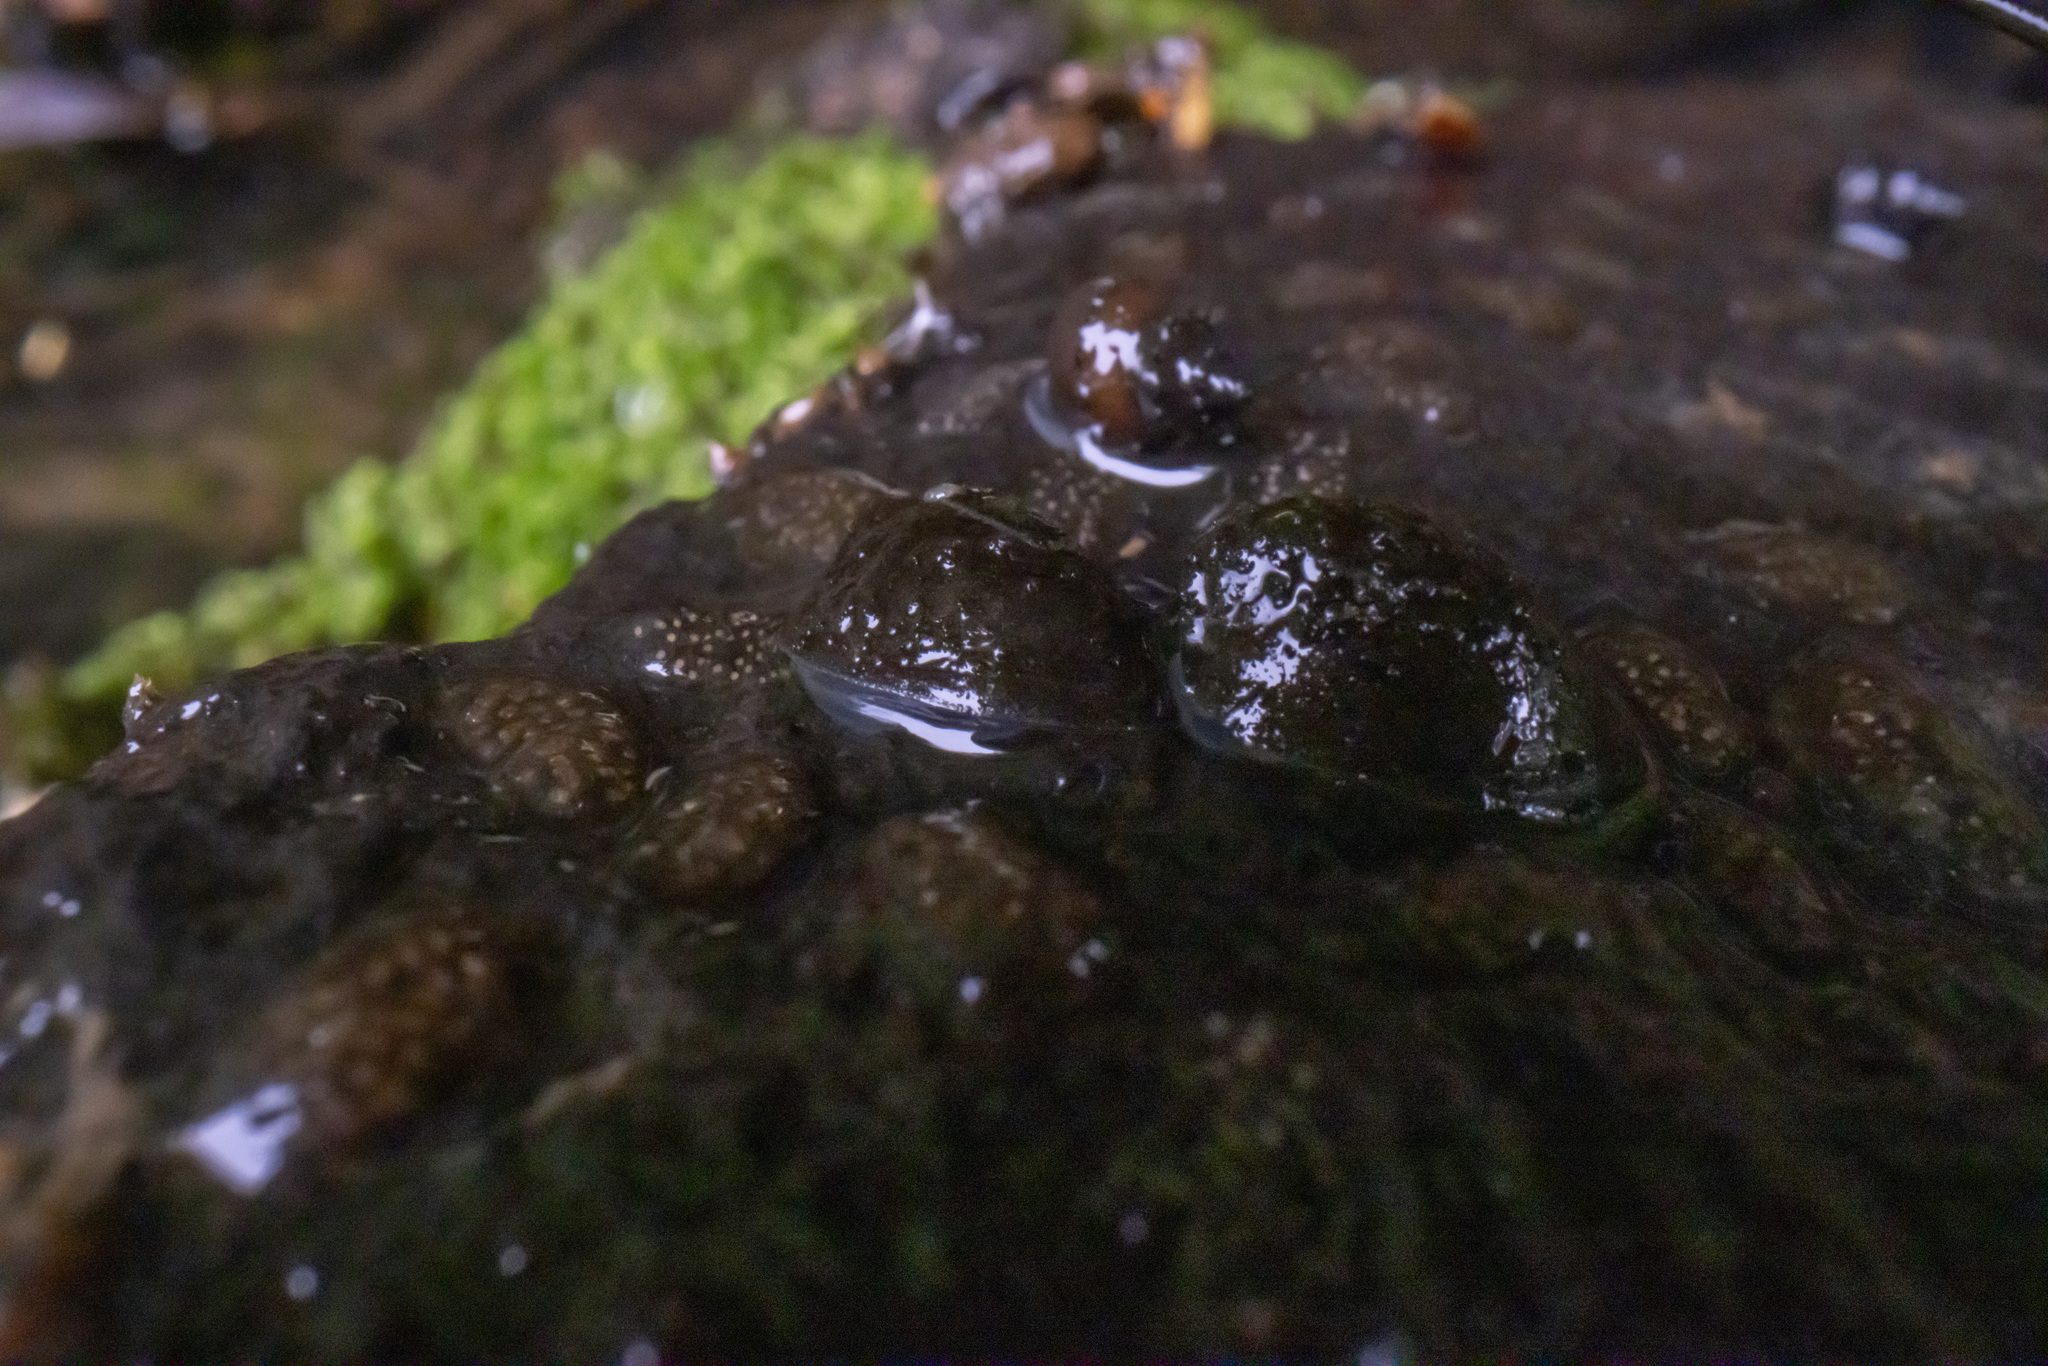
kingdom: Animalia
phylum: Mollusca
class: Gastropoda
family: Latiidae
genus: Latia
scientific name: Latia neritoides
